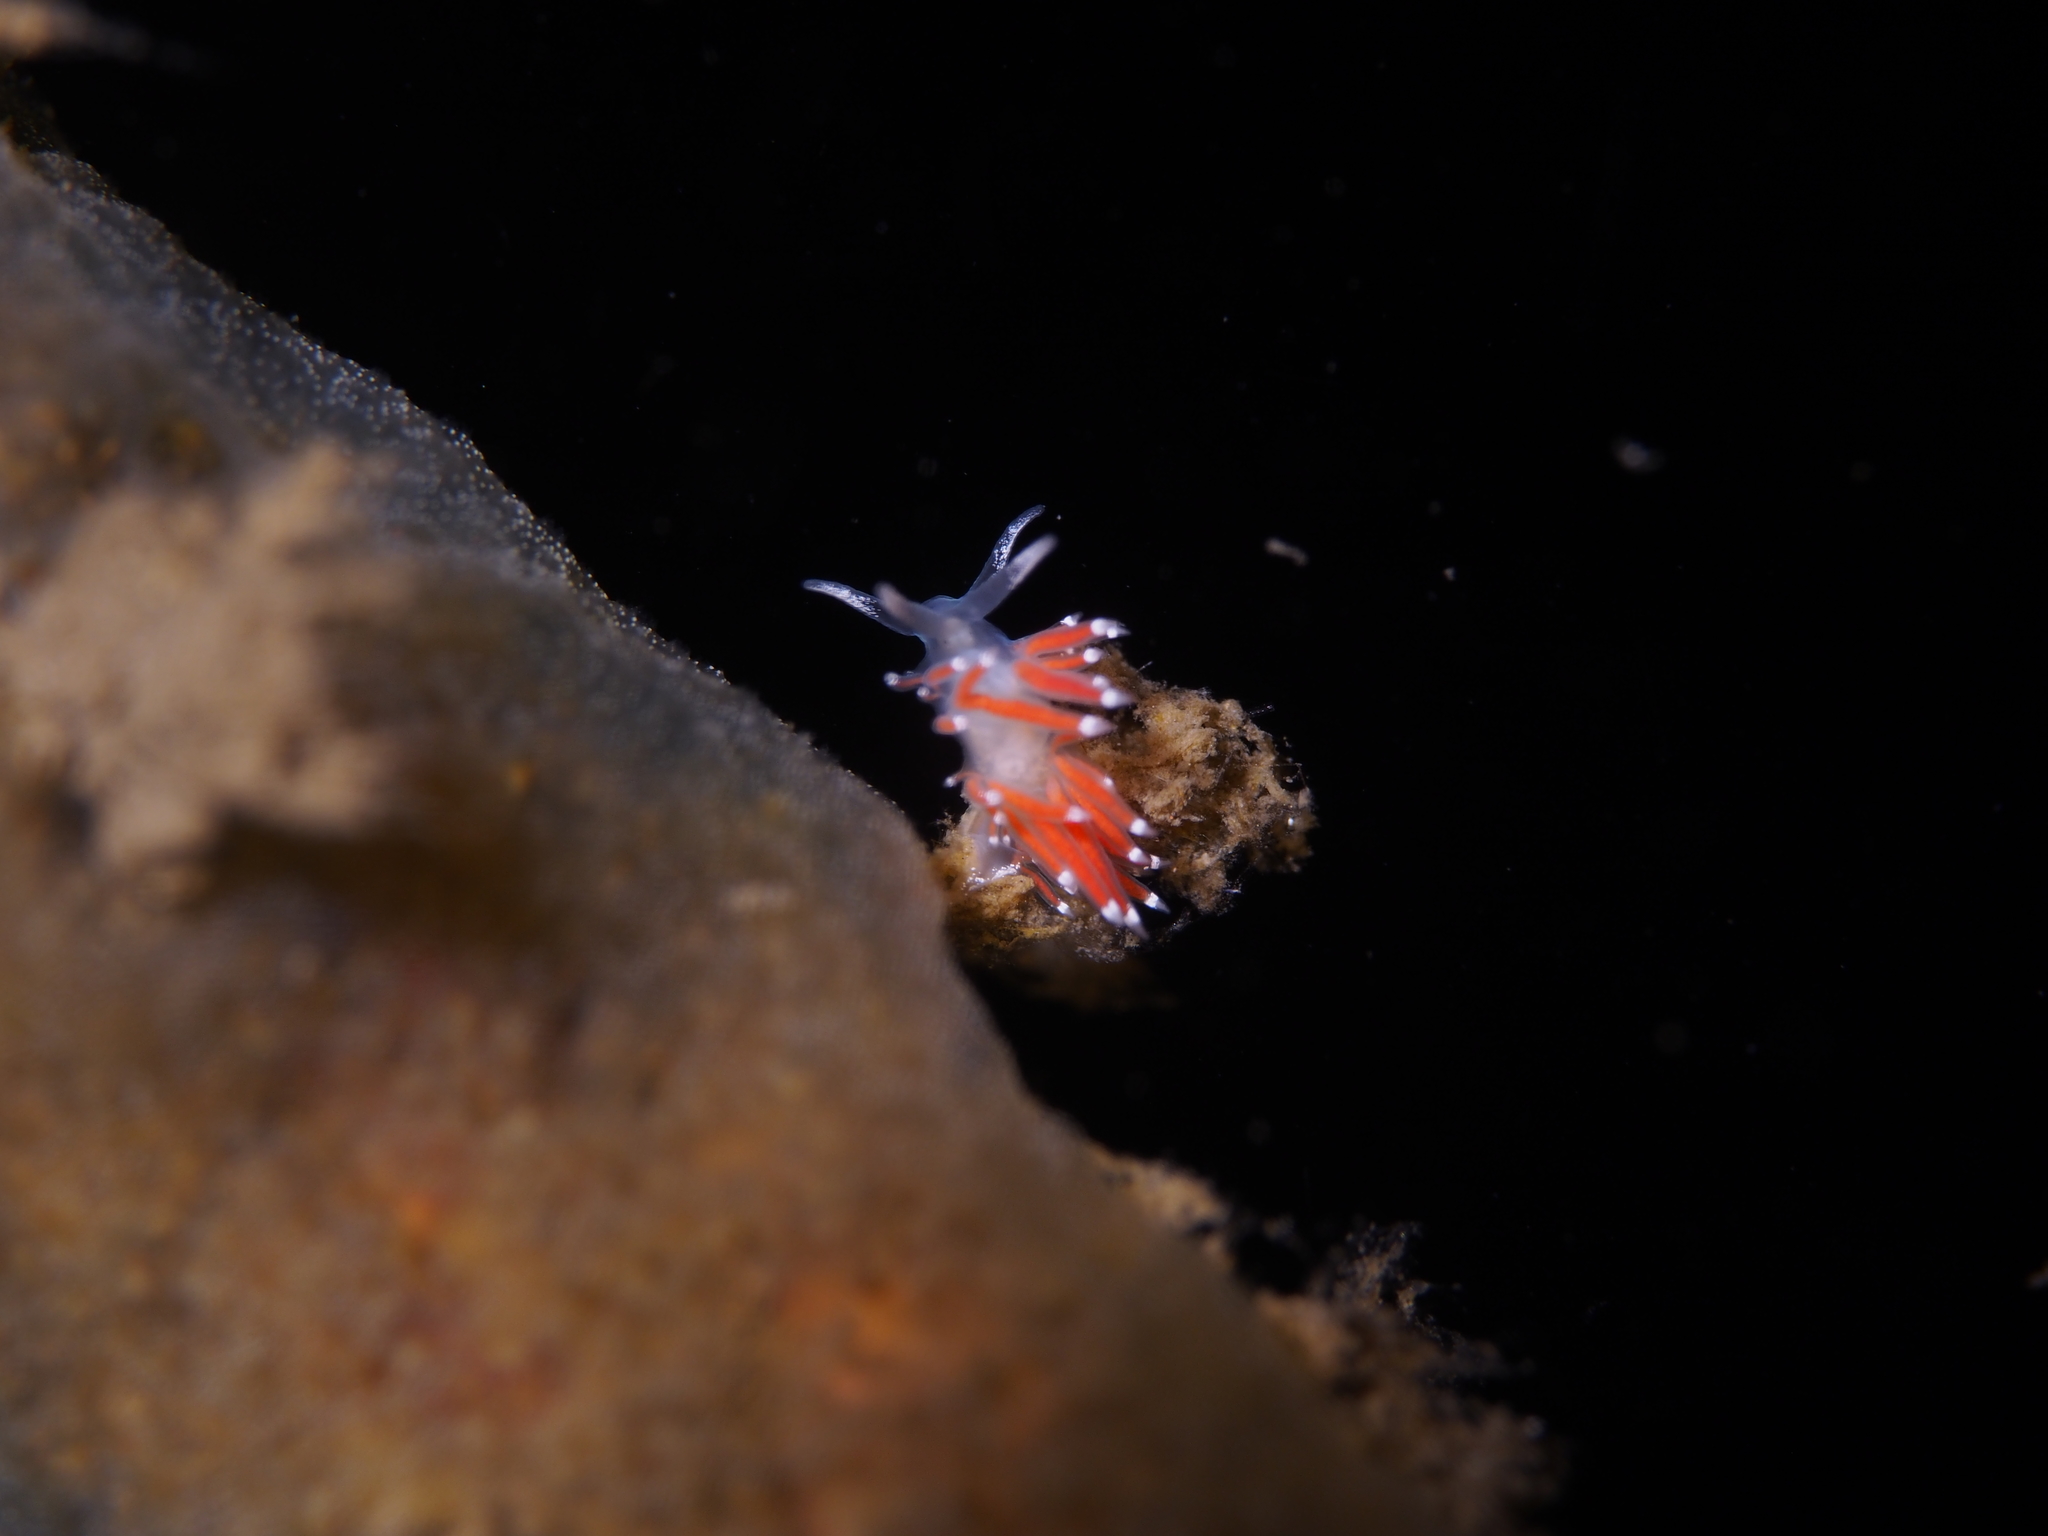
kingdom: Animalia
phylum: Mollusca
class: Gastropoda
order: Nudibranchia
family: Coryphellidae
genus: Coryphella
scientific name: Coryphella gracilis
